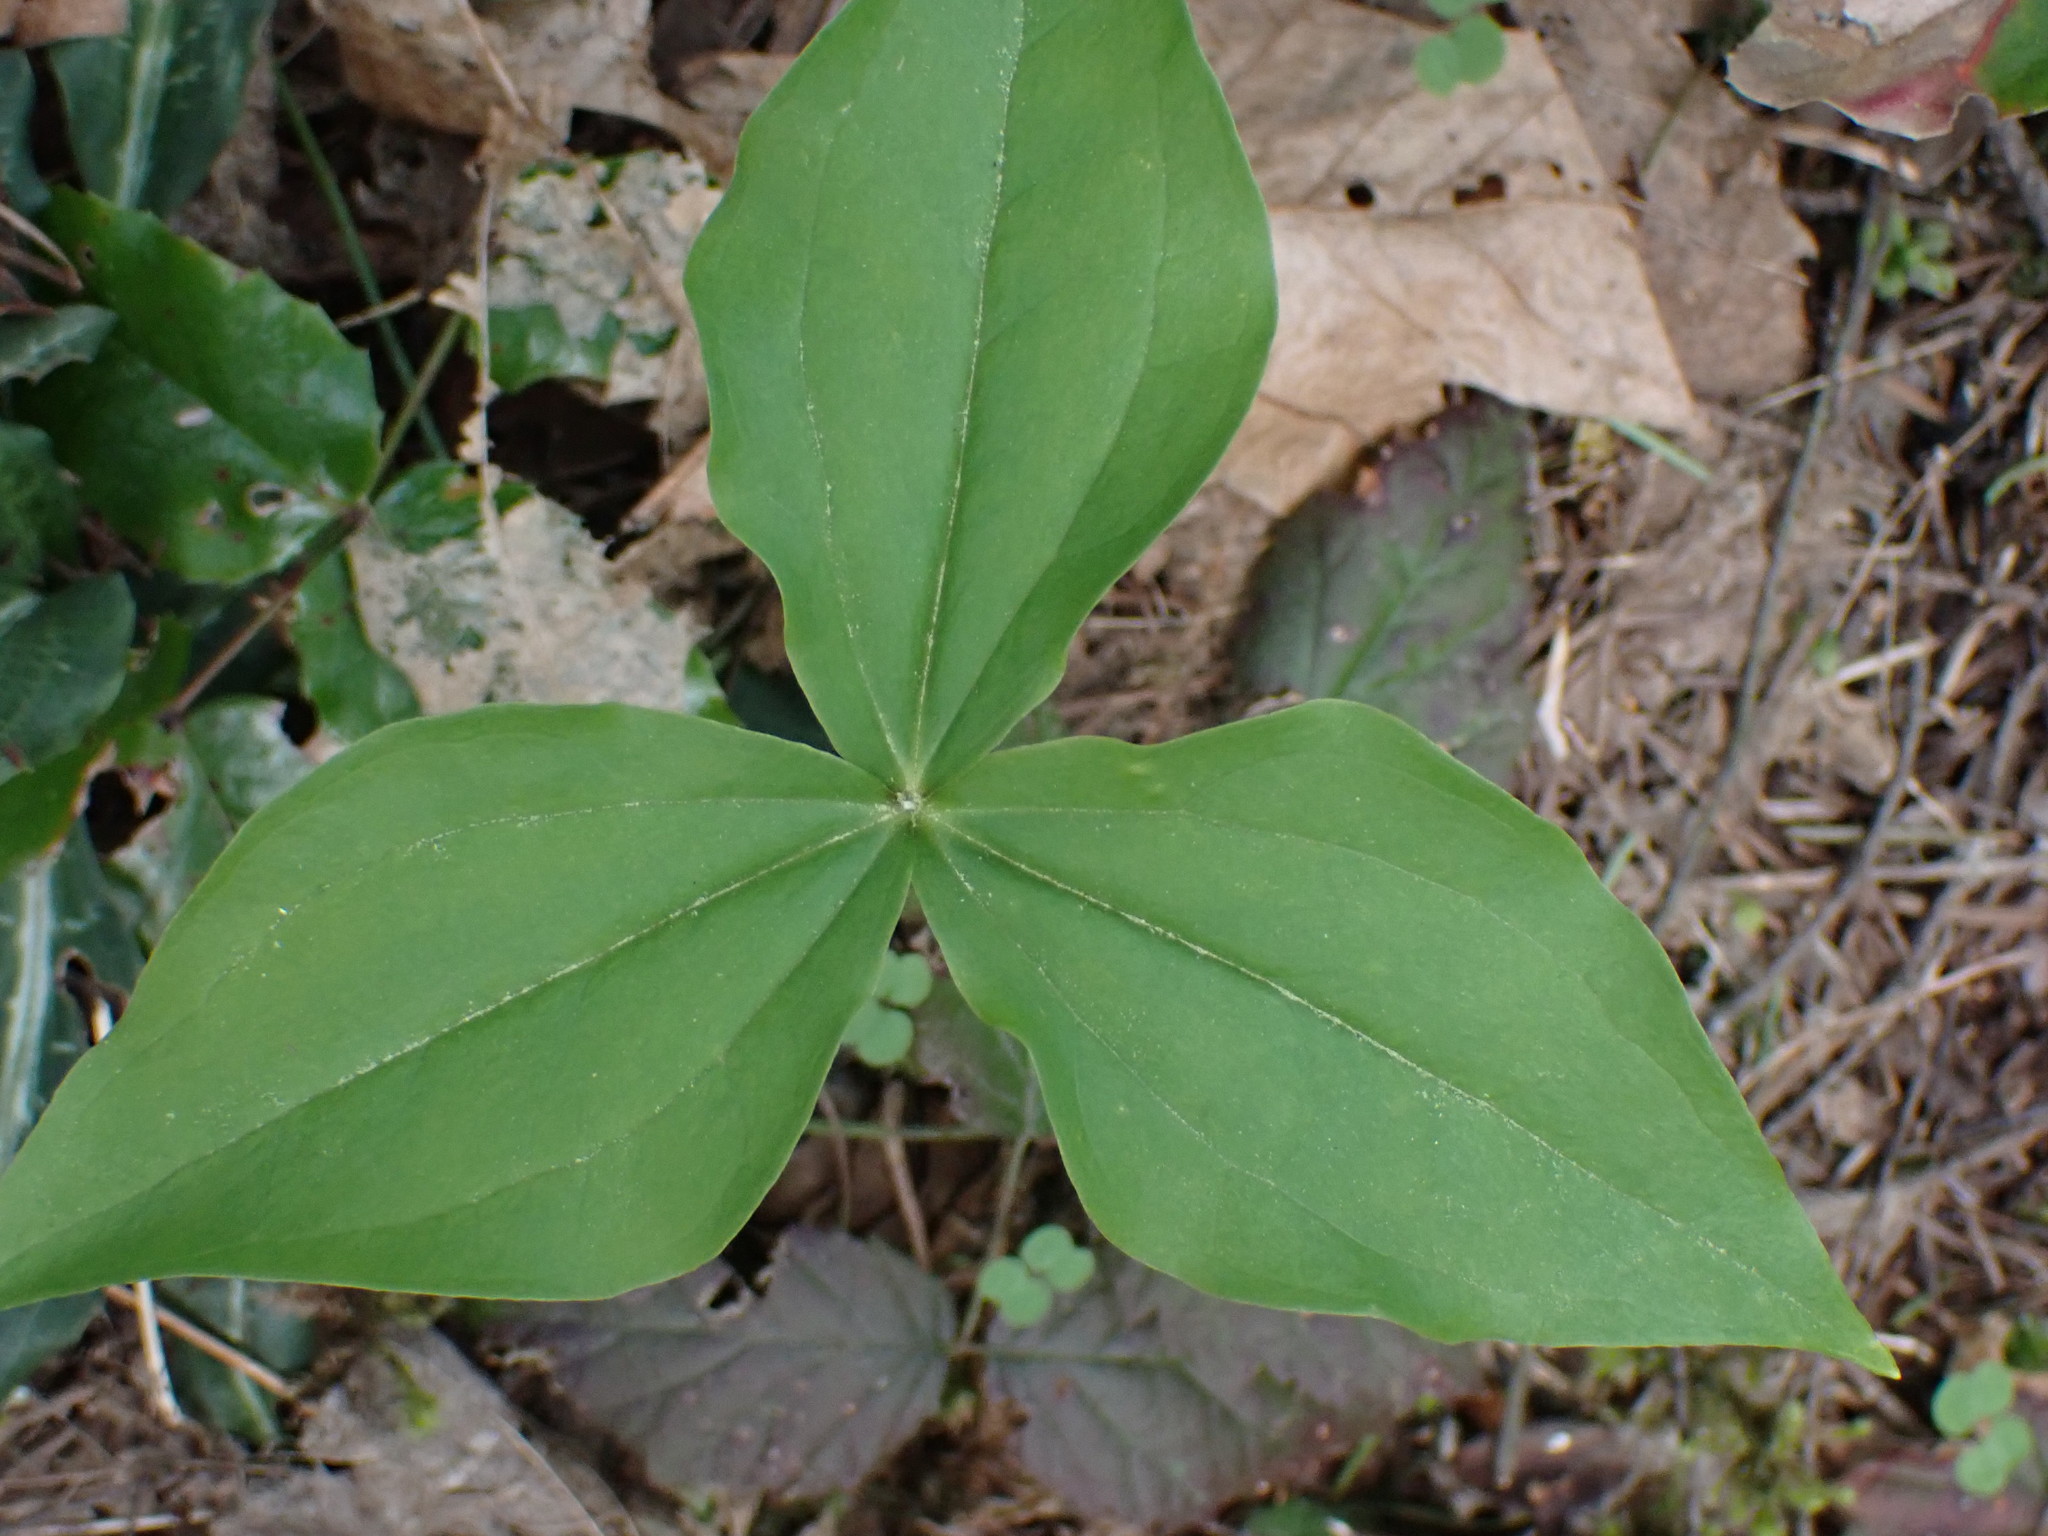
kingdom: Plantae
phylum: Tracheophyta
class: Liliopsida
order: Liliales
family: Melanthiaceae
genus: Trillium
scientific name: Trillium ovatum
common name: Pacific trillium
